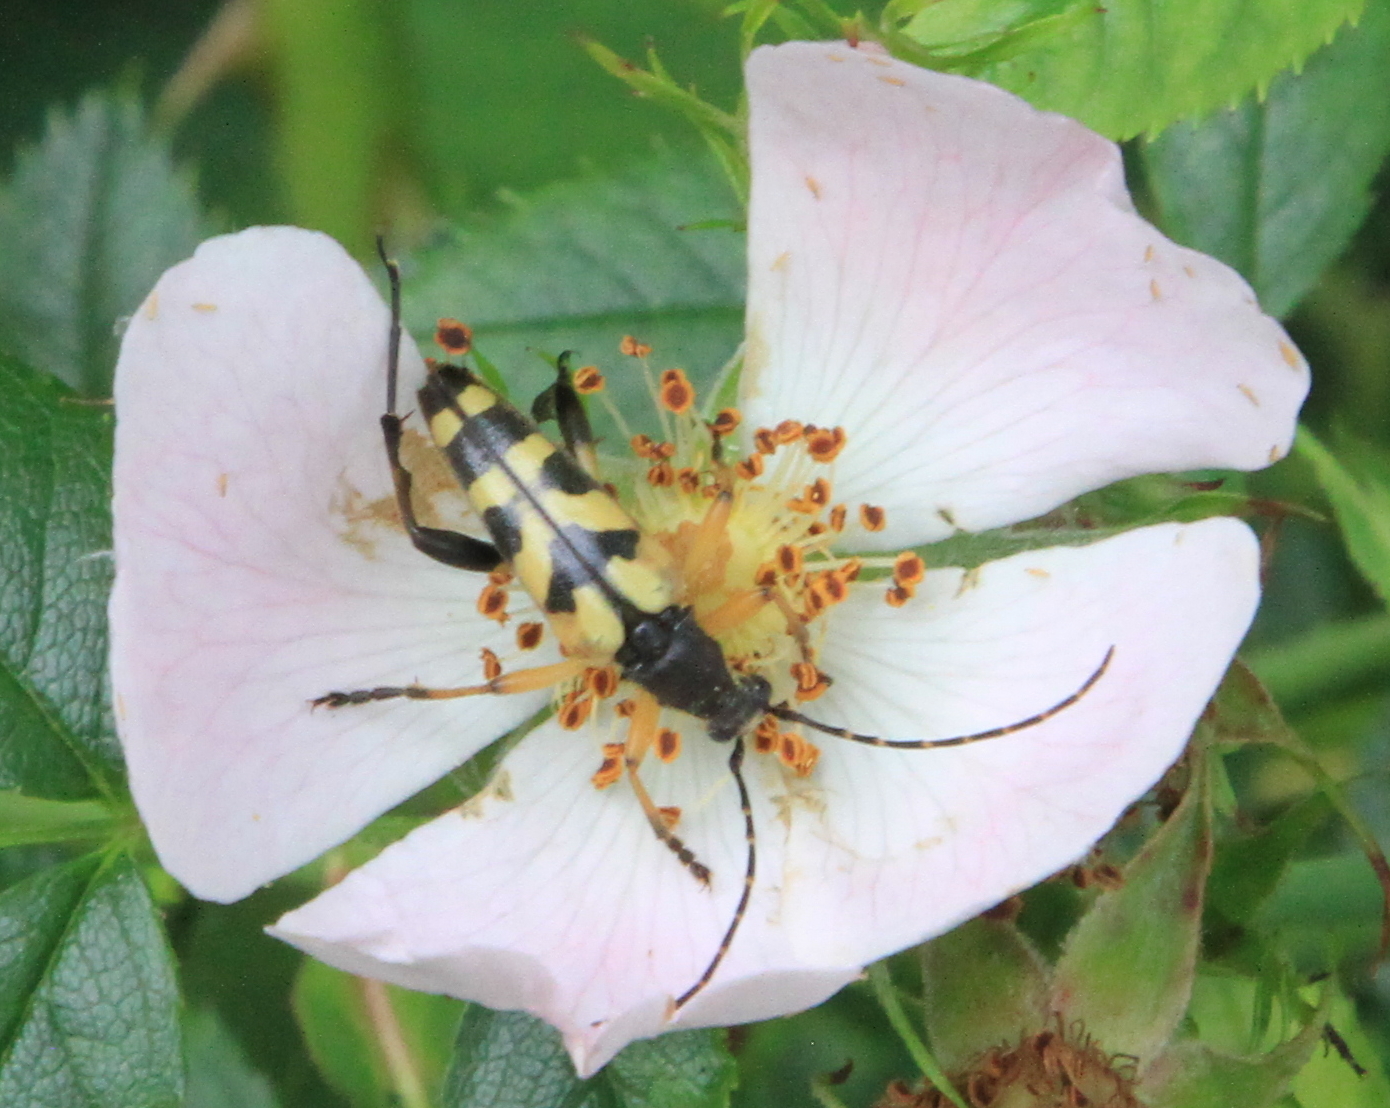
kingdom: Animalia
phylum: Arthropoda
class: Insecta
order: Coleoptera
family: Cerambycidae
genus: Rutpela
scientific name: Rutpela maculata
